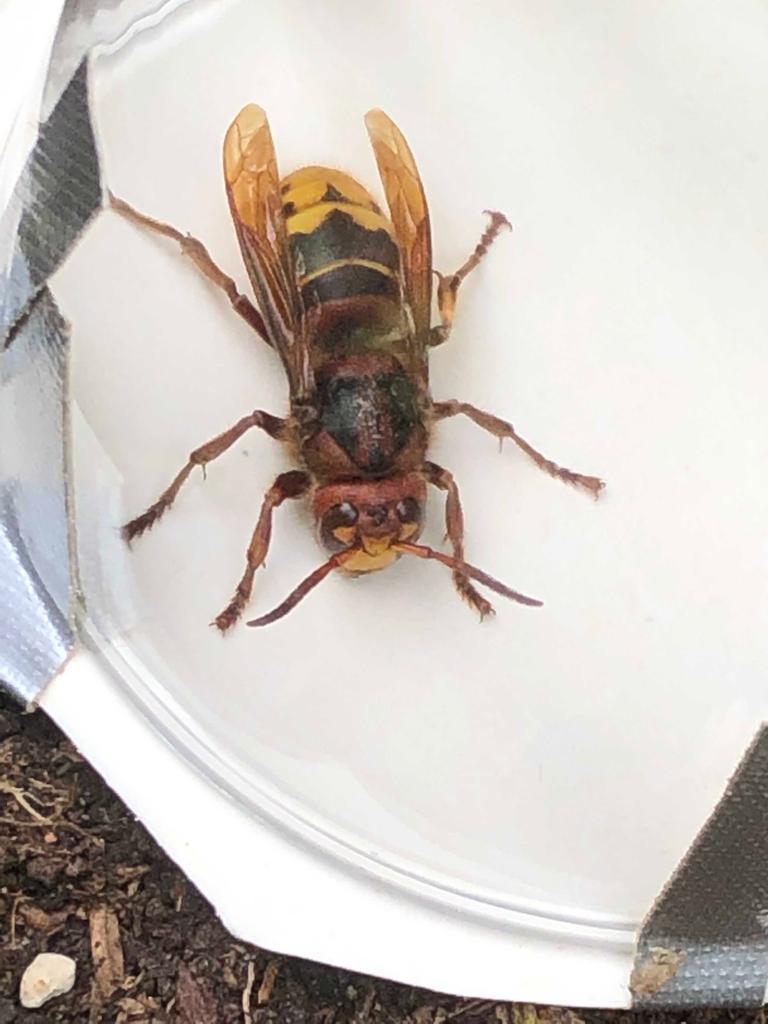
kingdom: Animalia
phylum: Arthropoda
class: Insecta
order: Hymenoptera
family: Vespidae
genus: Vespa
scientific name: Vespa crabro
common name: Hornet
